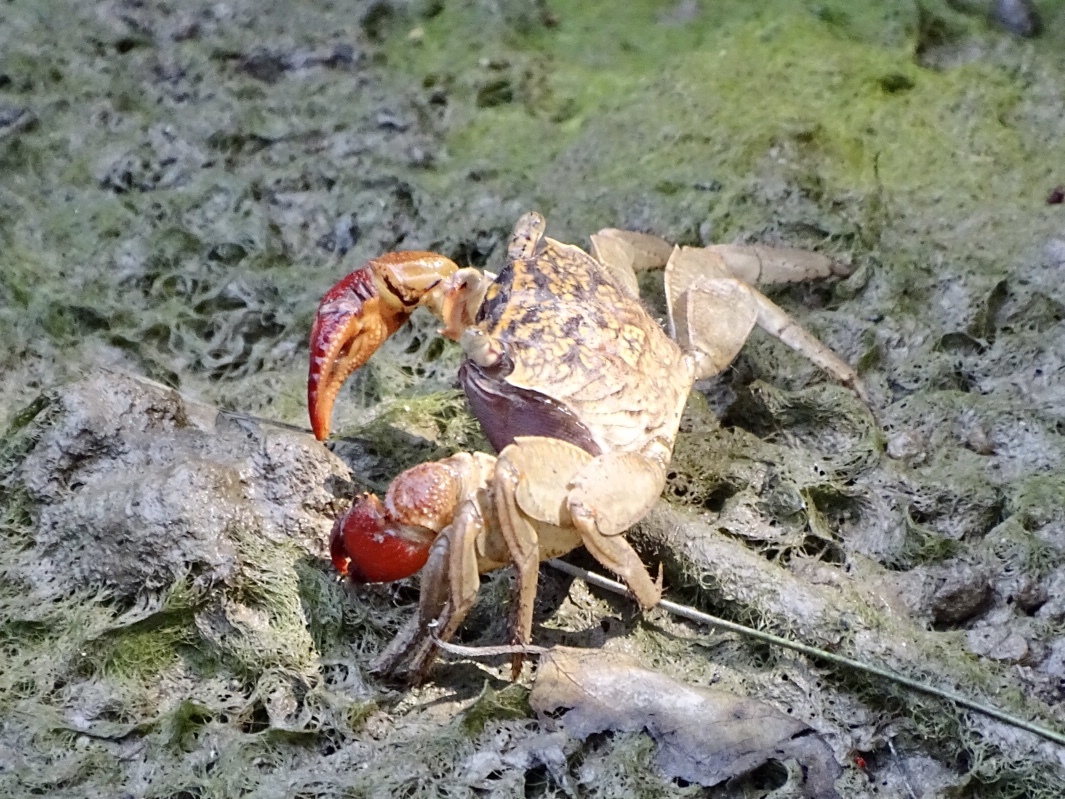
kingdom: Animalia
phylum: Arthropoda
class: Malacostraca
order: Decapoda
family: Sesarmidae
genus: Parasesarma
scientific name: Parasesarma affine
